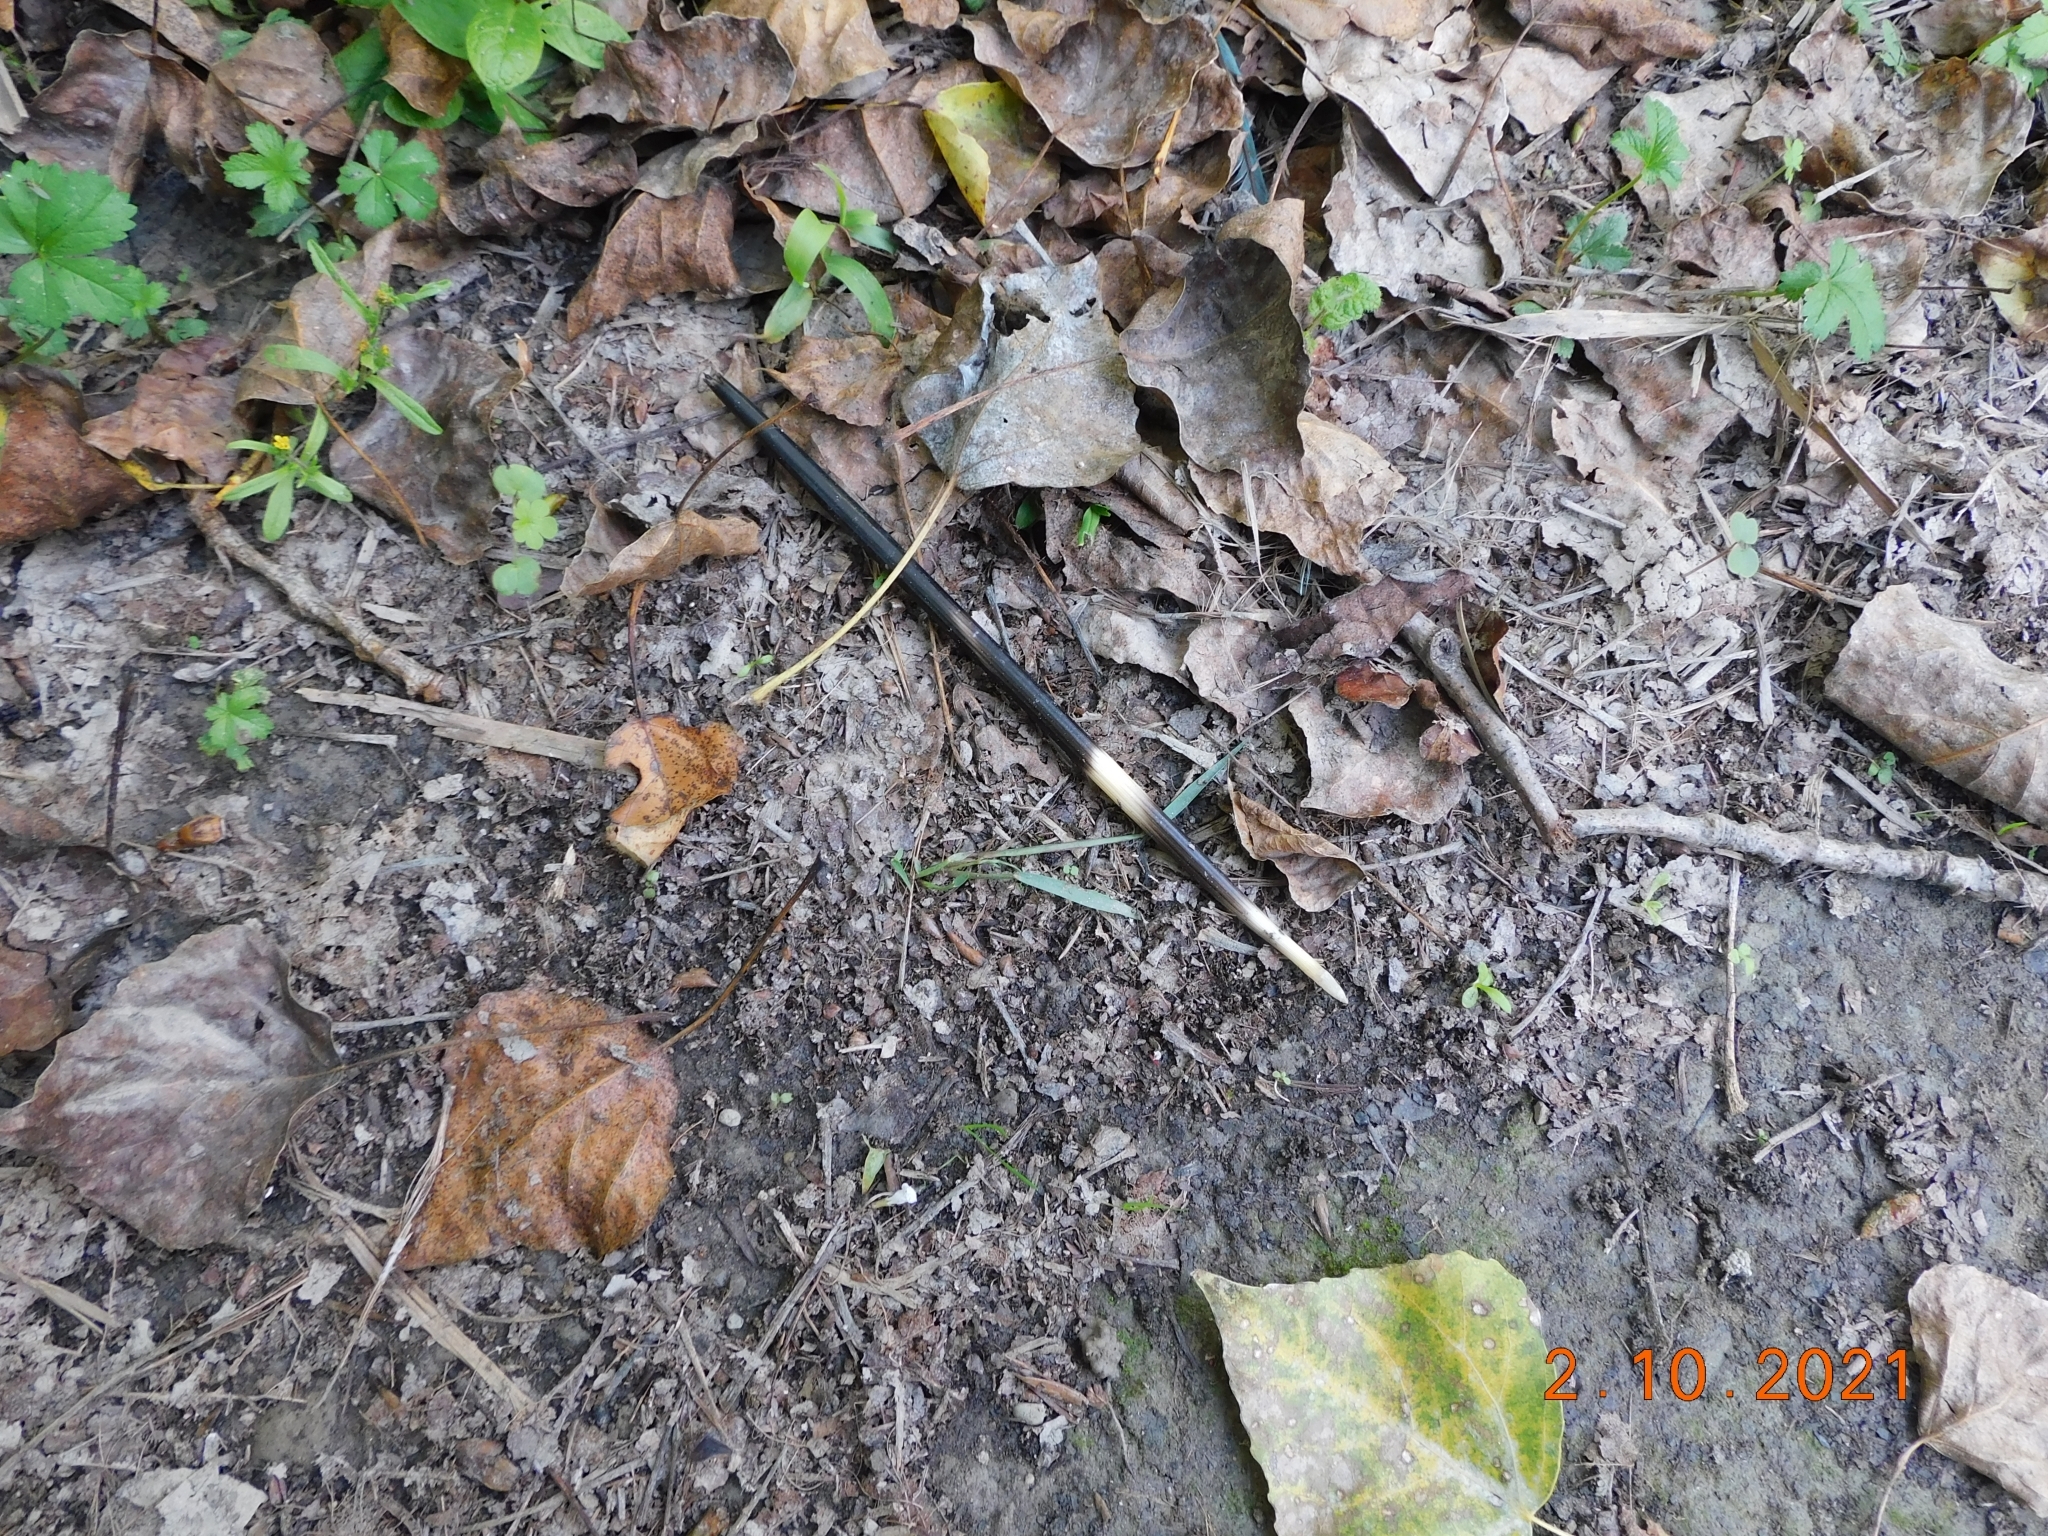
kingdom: Animalia
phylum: Chordata
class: Mammalia
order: Rodentia
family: Hystricidae
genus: Hystrix
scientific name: Hystrix cristata
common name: Crested porcupine
